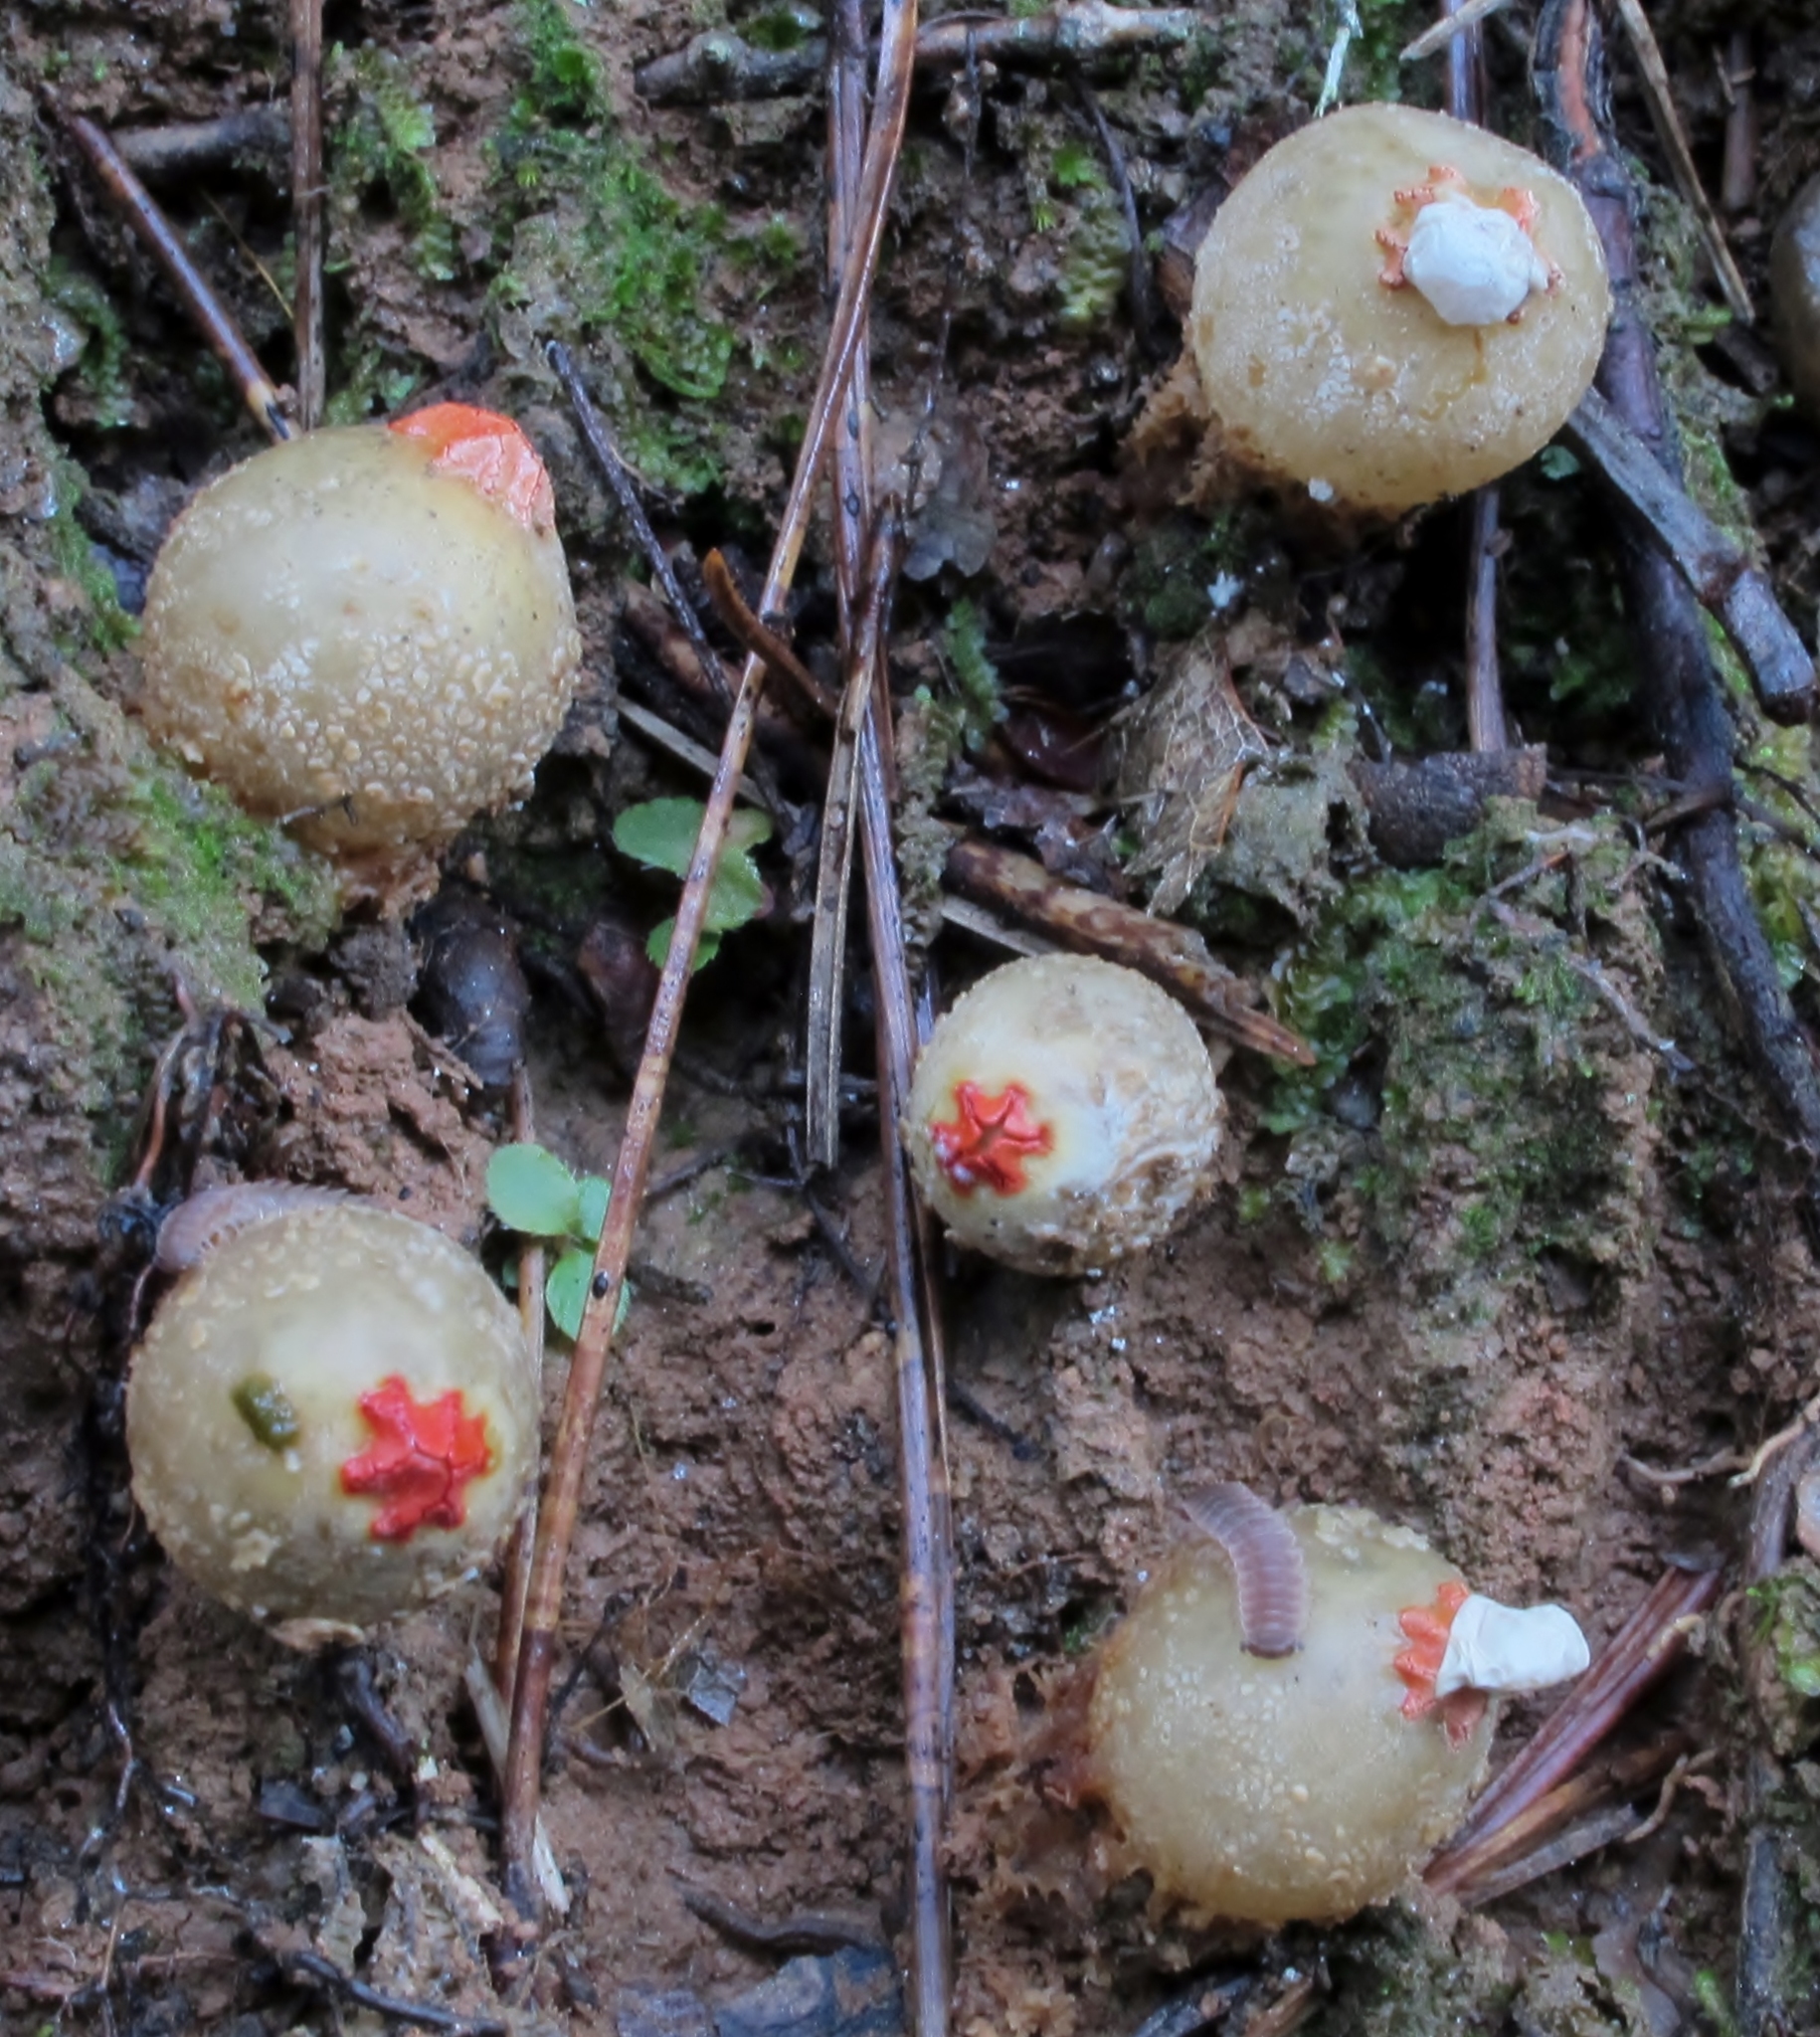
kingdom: Fungi
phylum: Basidiomycota
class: Agaricomycetes
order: Boletales
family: Calostomataceae
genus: Calostoma
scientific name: Calostoma ravenelii
